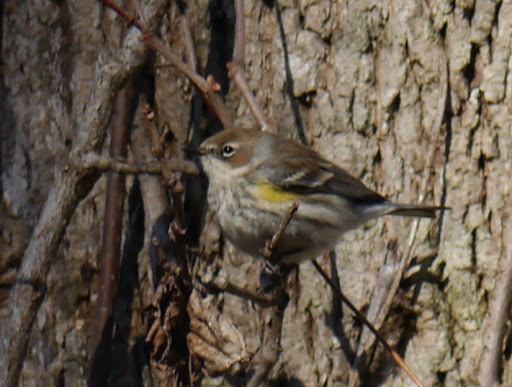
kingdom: Animalia
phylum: Chordata
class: Aves
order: Passeriformes
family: Parulidae
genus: Setophaga
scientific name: Setophaga coronata
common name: Myrtle warbler
